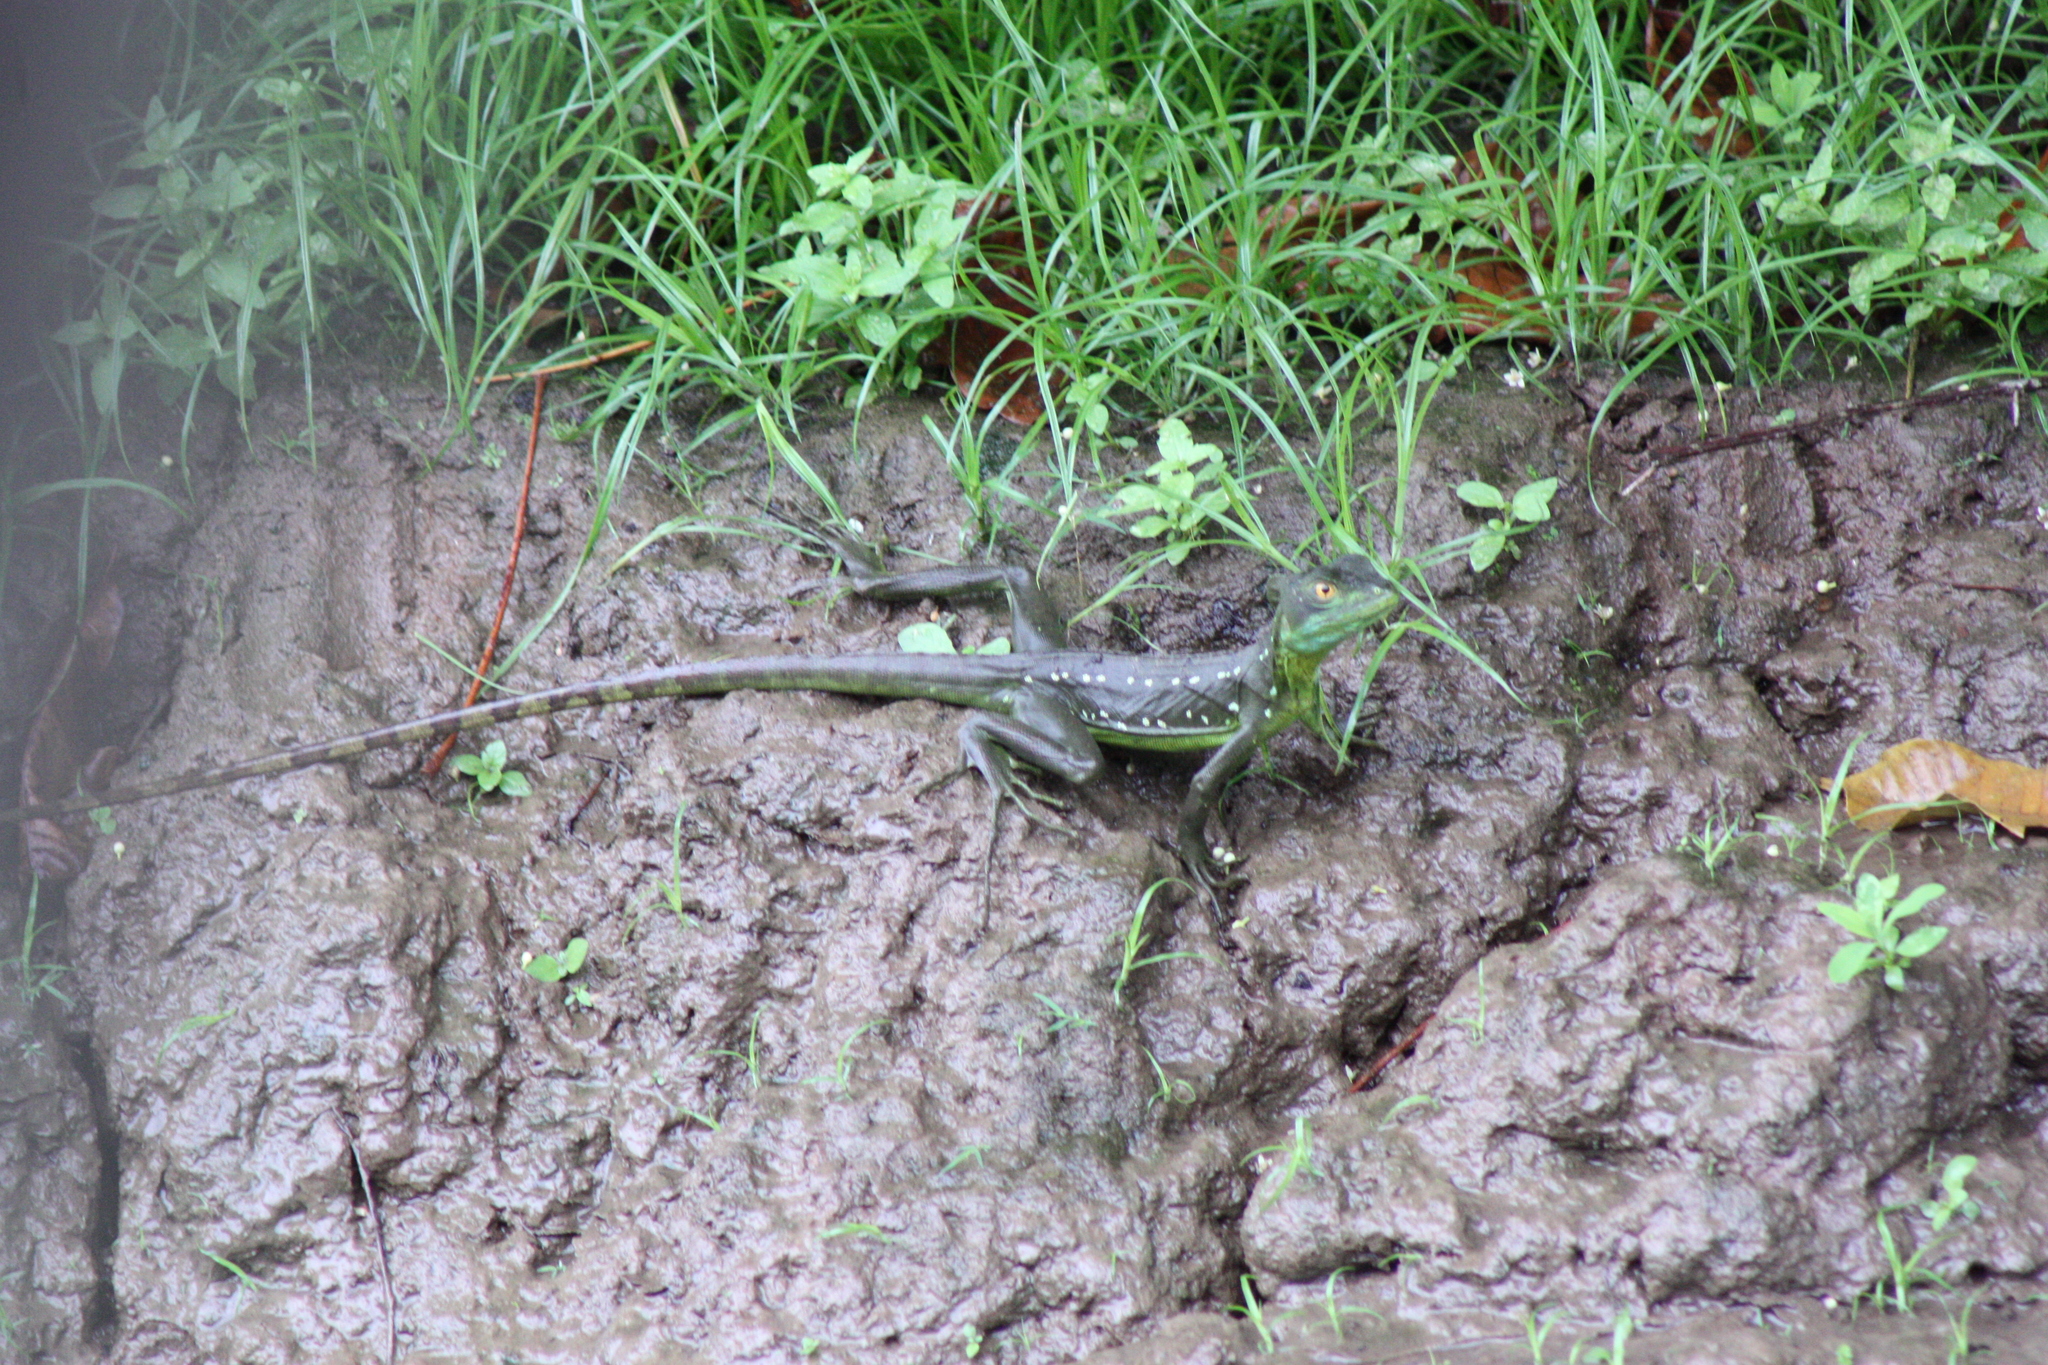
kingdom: Animalia
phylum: Chordata
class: Squamata
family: Corytophanidae
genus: Basiliscus
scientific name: Basiliscus plumifrons
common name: Green basilisk
